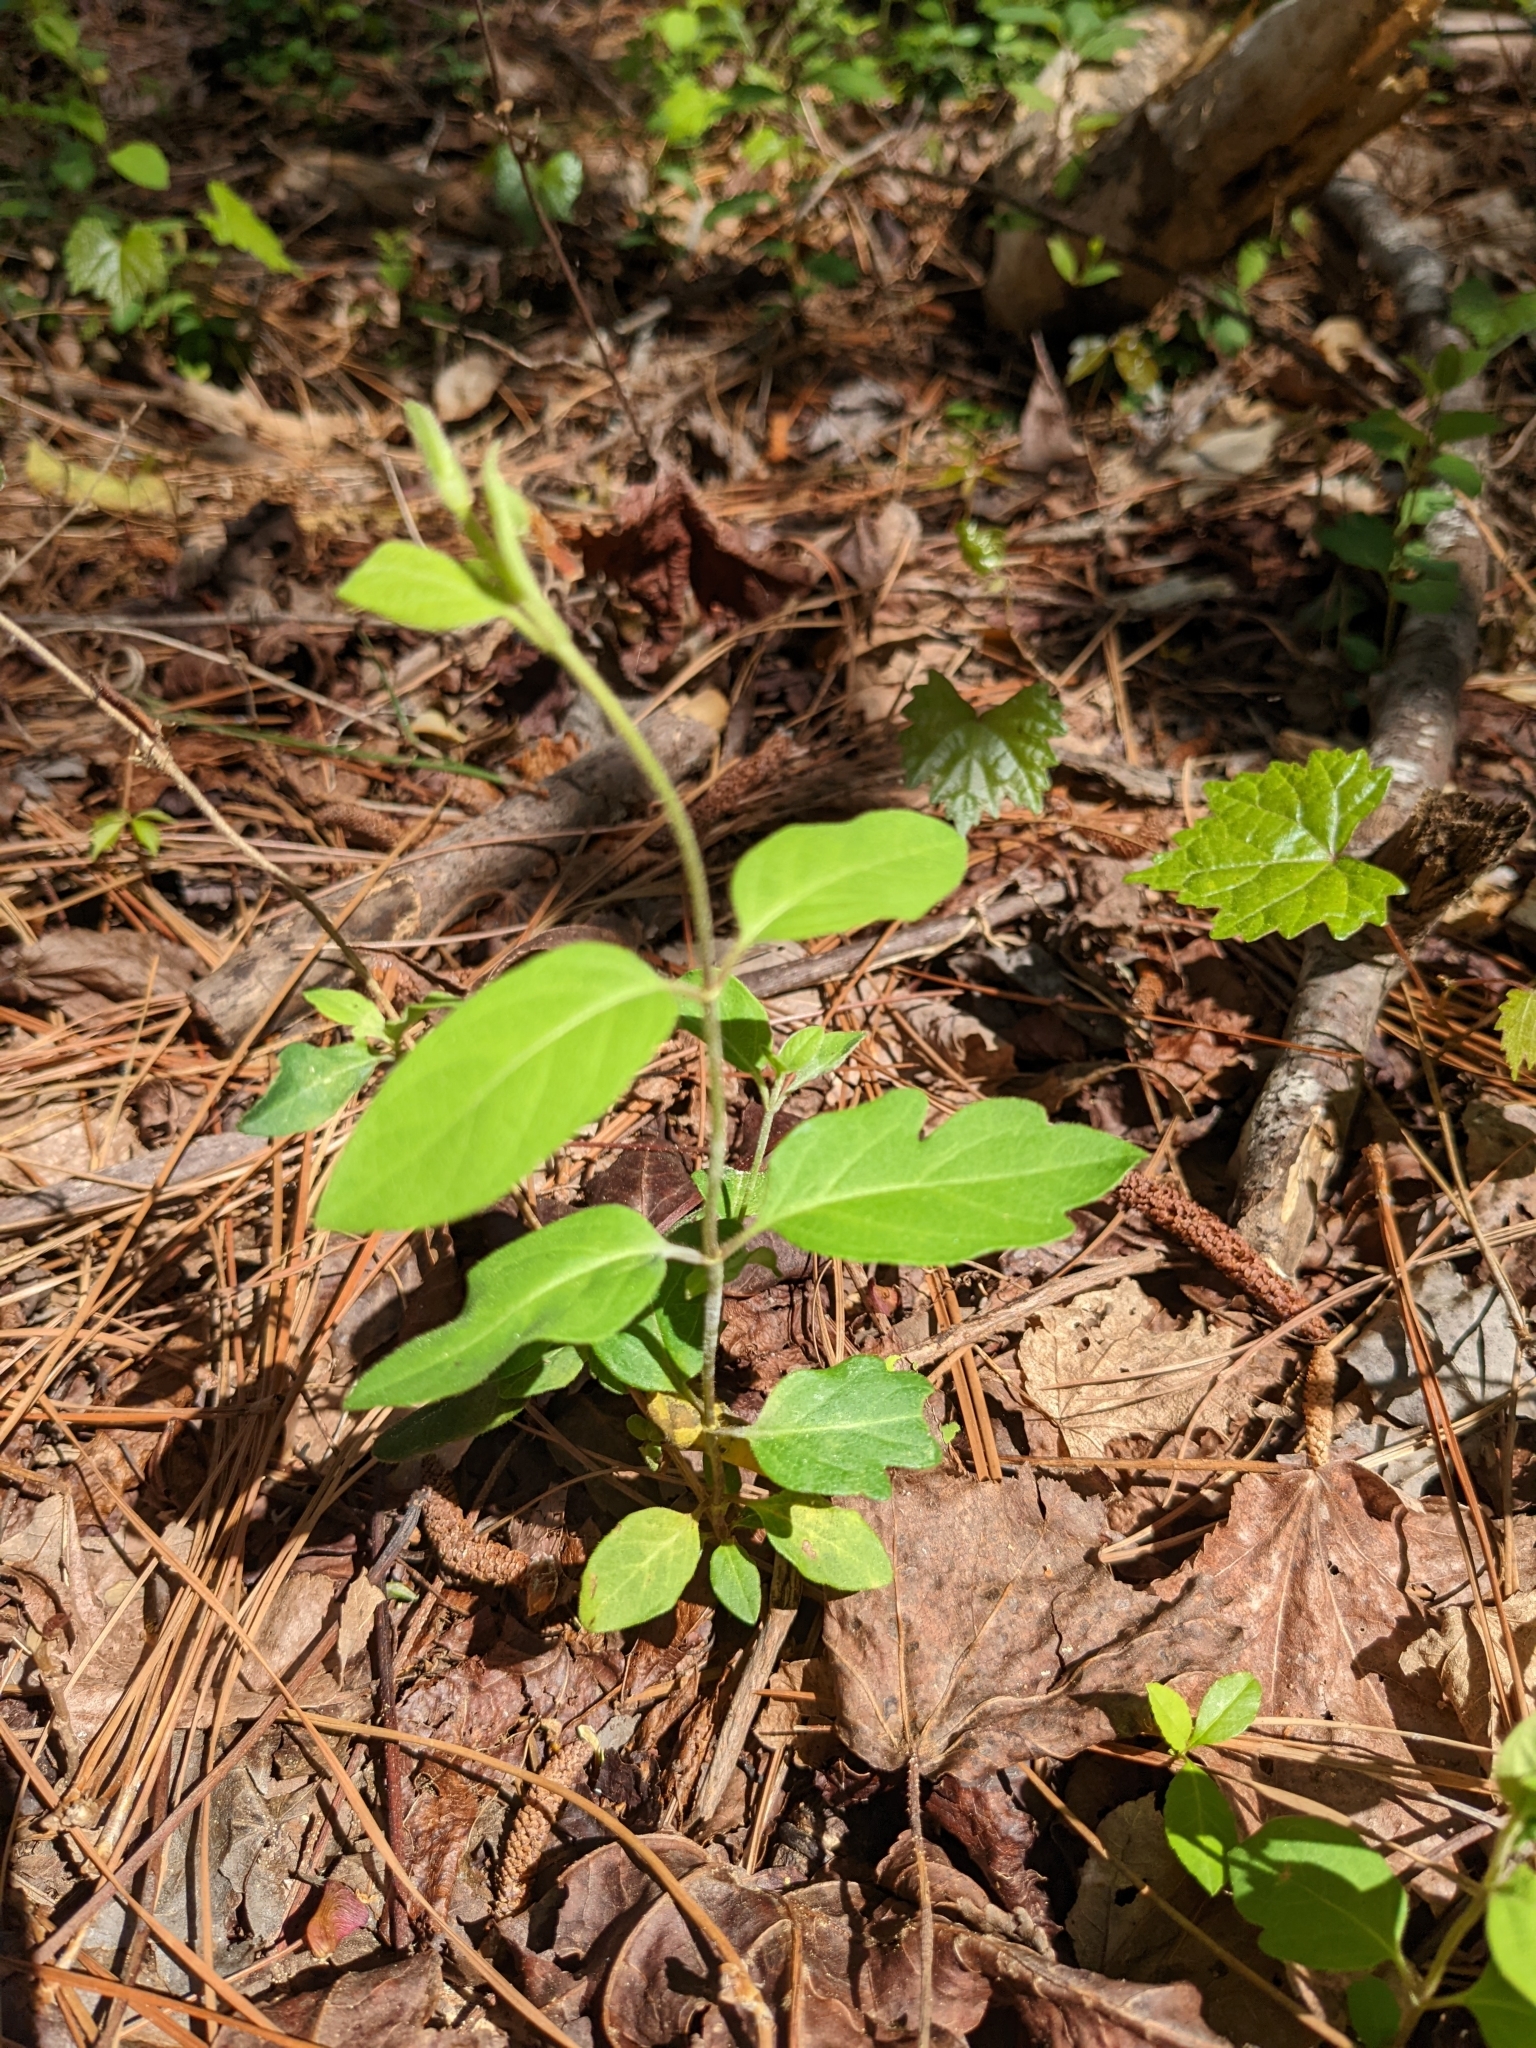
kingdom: Plantae
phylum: Tracheophyta
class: Magnoliopsida
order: Dipsacales
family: Caprifoliaceae
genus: Lonicera
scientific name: Lonicera japonica
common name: Japanese honeysuckle
